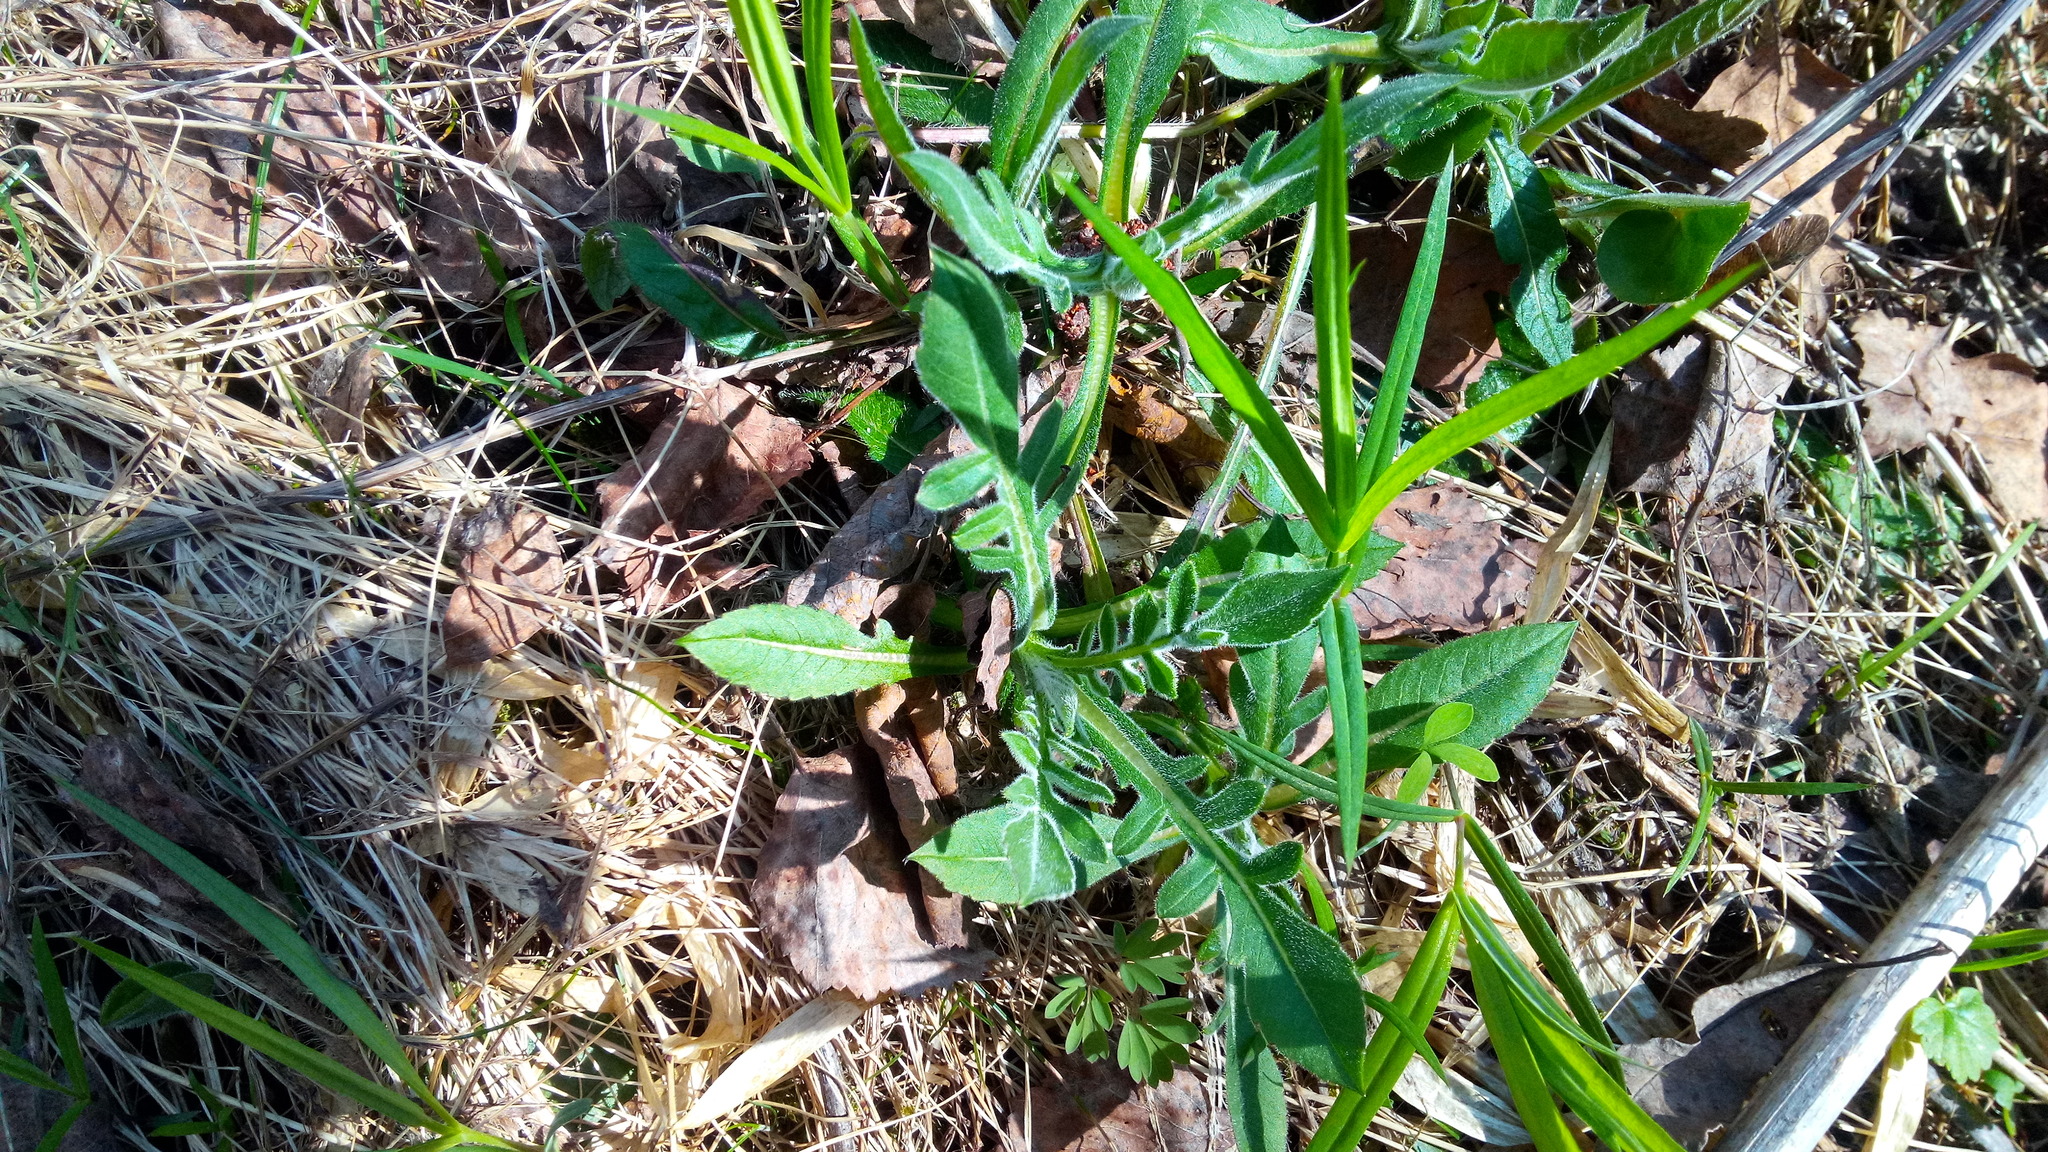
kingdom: Plantae
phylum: Tracheophyta
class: Magnoliopsida
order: Dipsacales
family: Caprifoliaceae
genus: Knautia
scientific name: Knautia arvensis
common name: Field scabiosa
